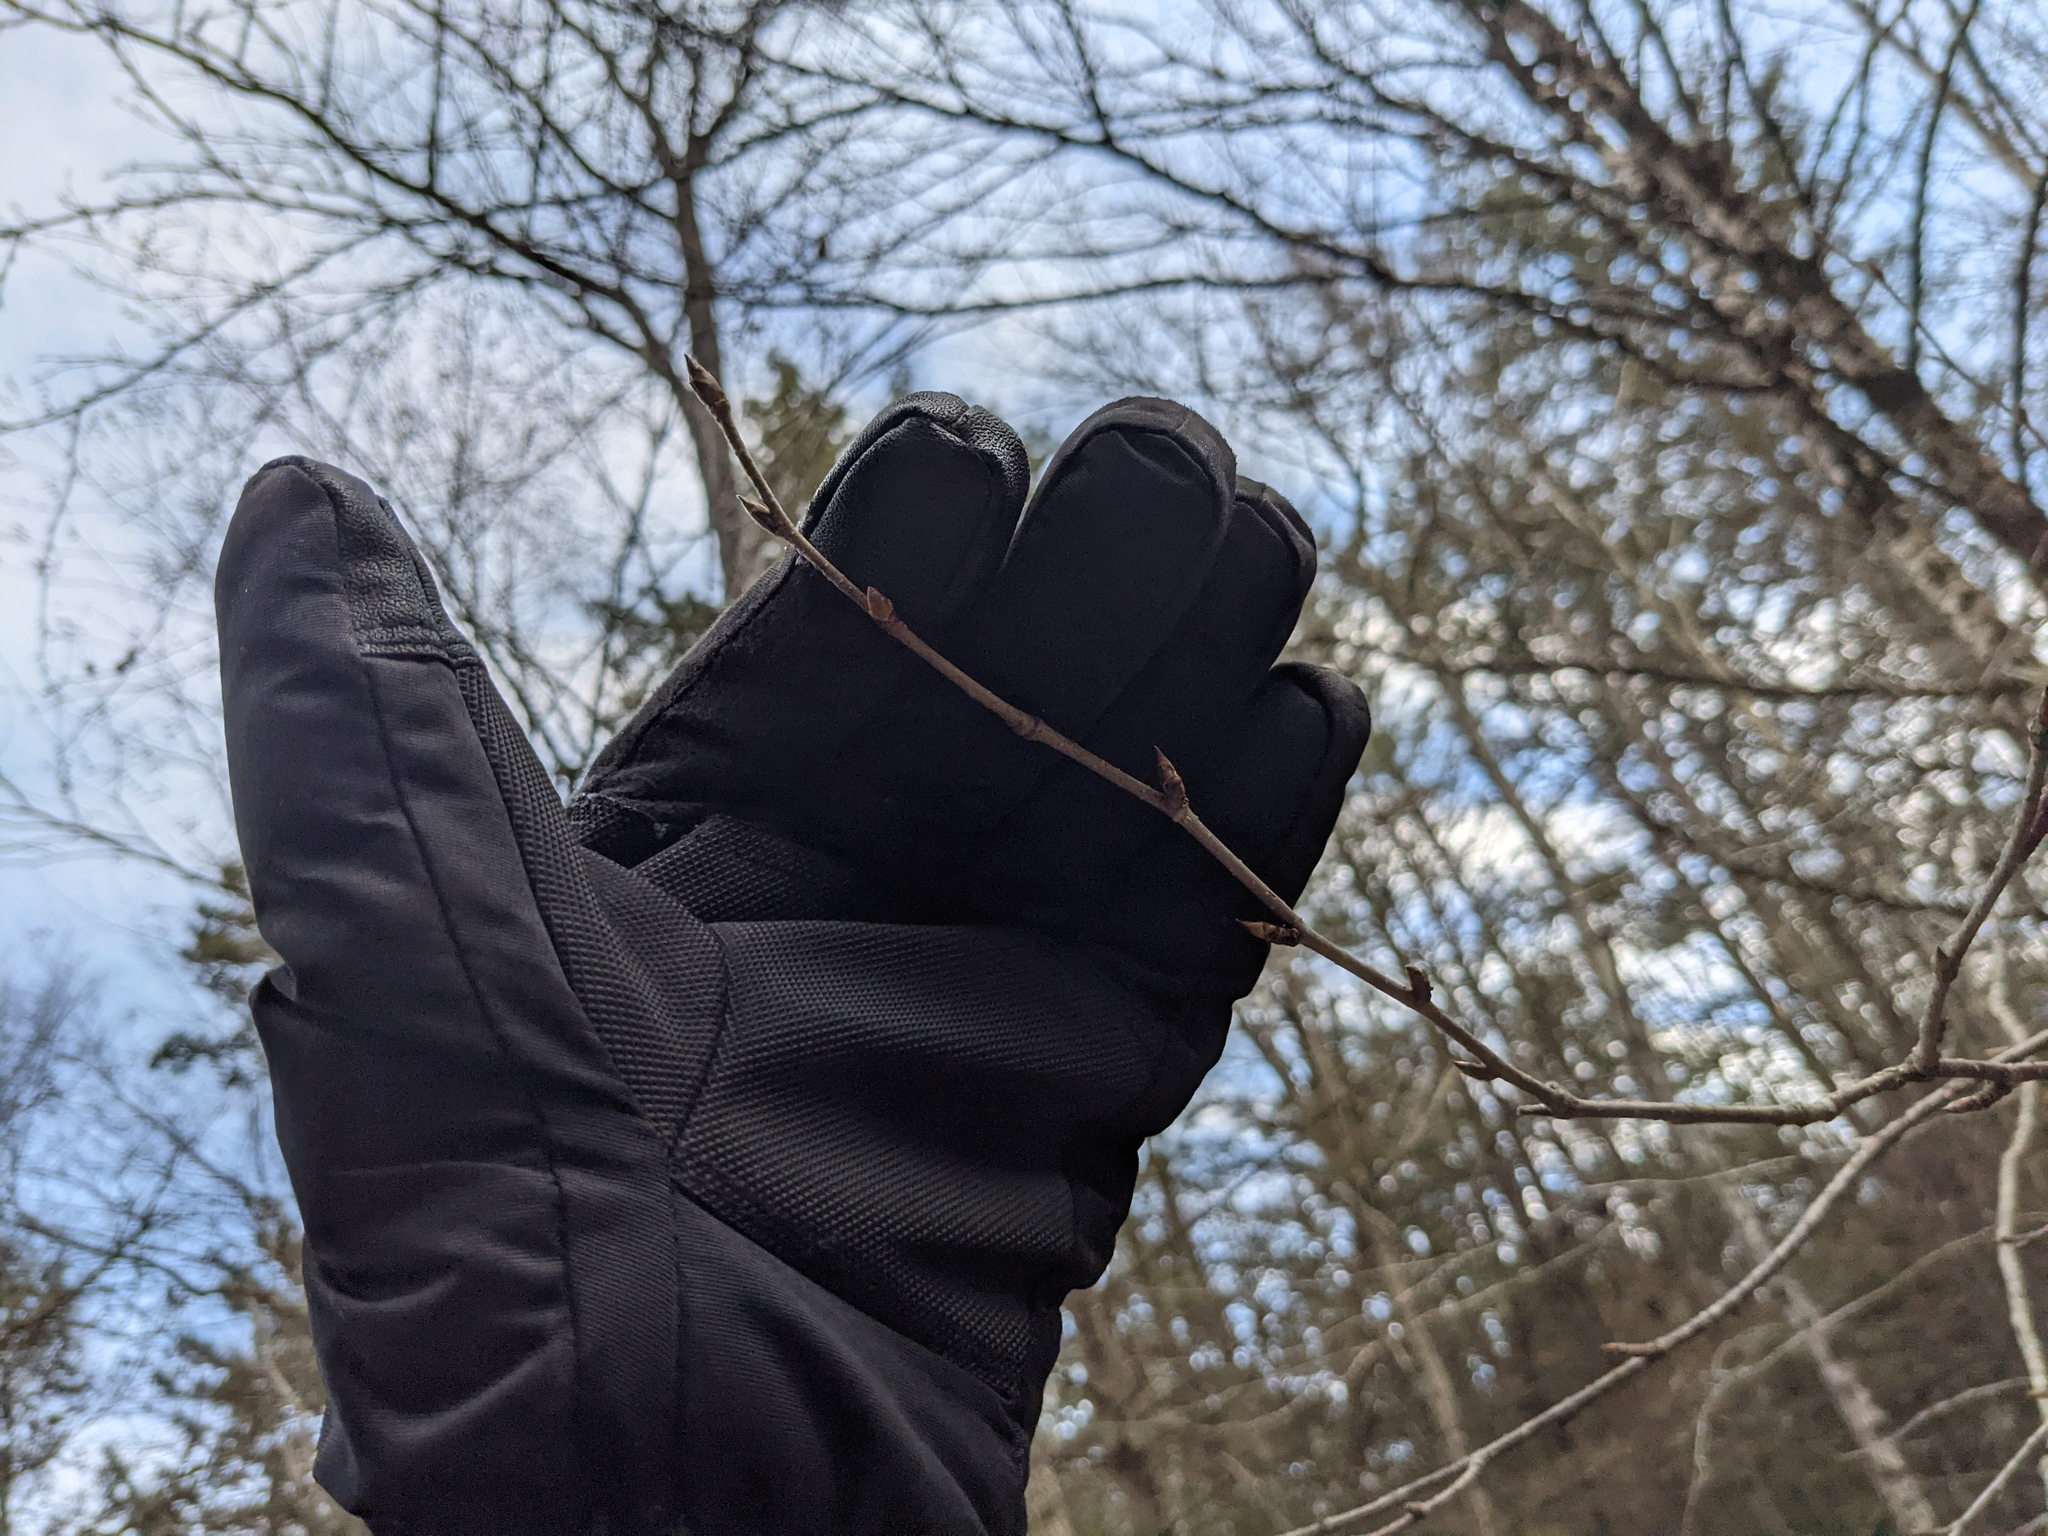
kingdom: Plantae
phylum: Tracheophyta
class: Magnoliopsida
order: Fagales
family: Betulaceae
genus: Betula
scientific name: Betula alleghaniensis
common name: Yellow birch
